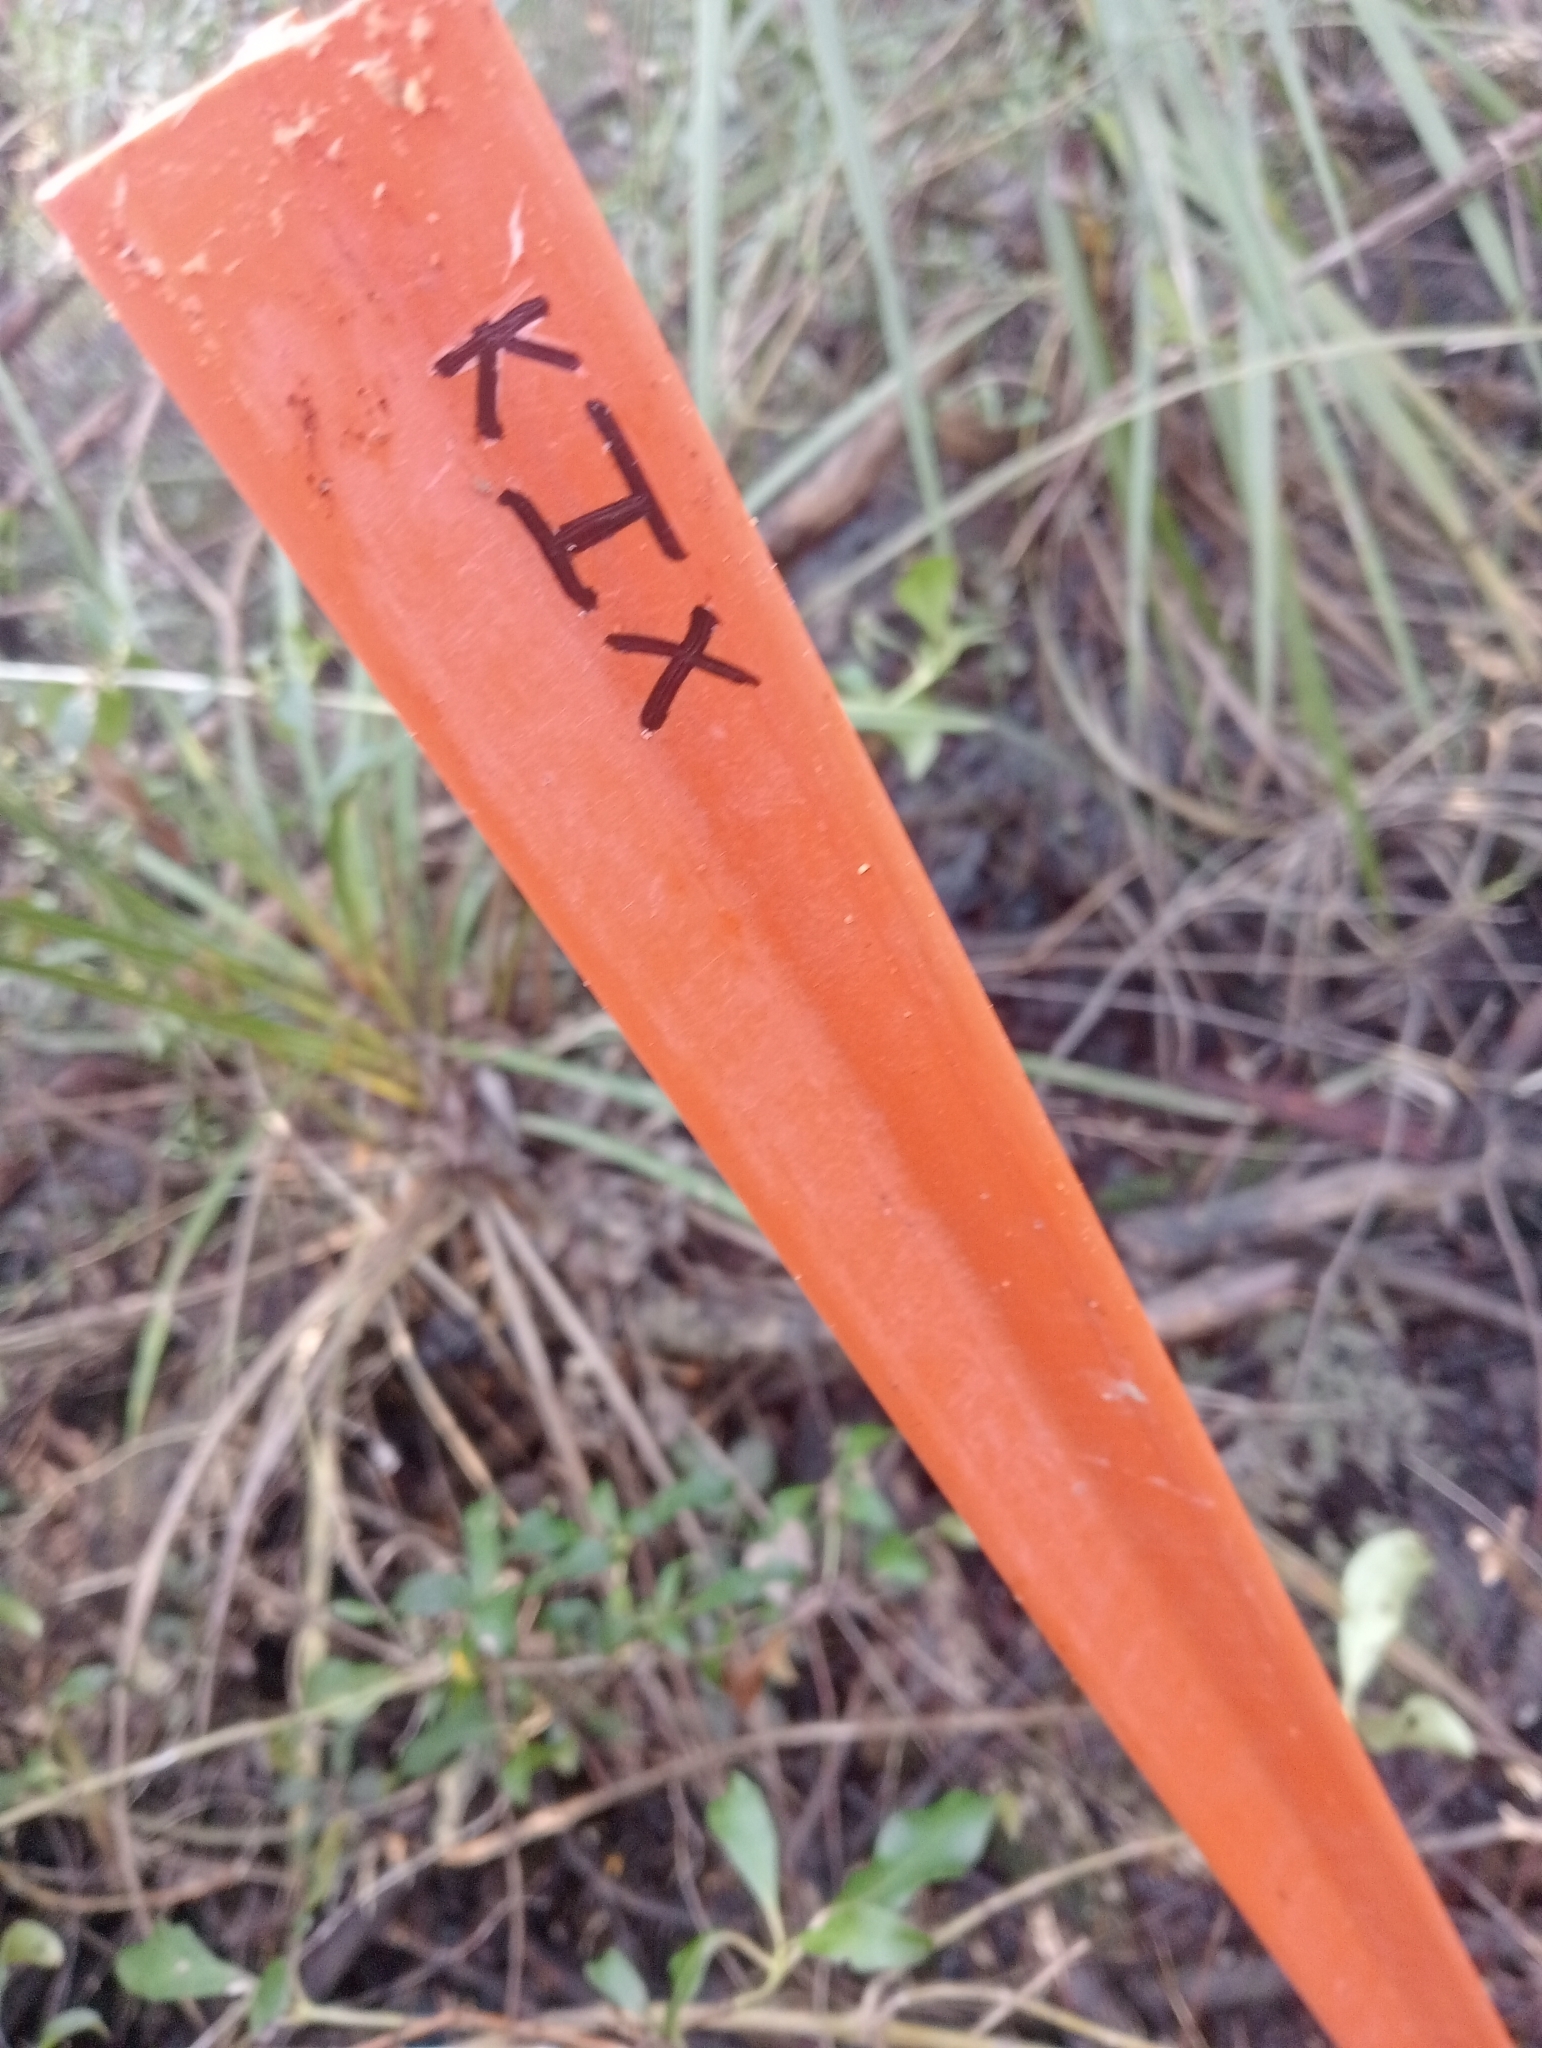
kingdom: Plantae
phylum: Tracheophyta
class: Pinopsida
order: Pinales
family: Podocarpaceae
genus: Dacrycarpus
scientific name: Dacrycarpus dacrydioides
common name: White pine
